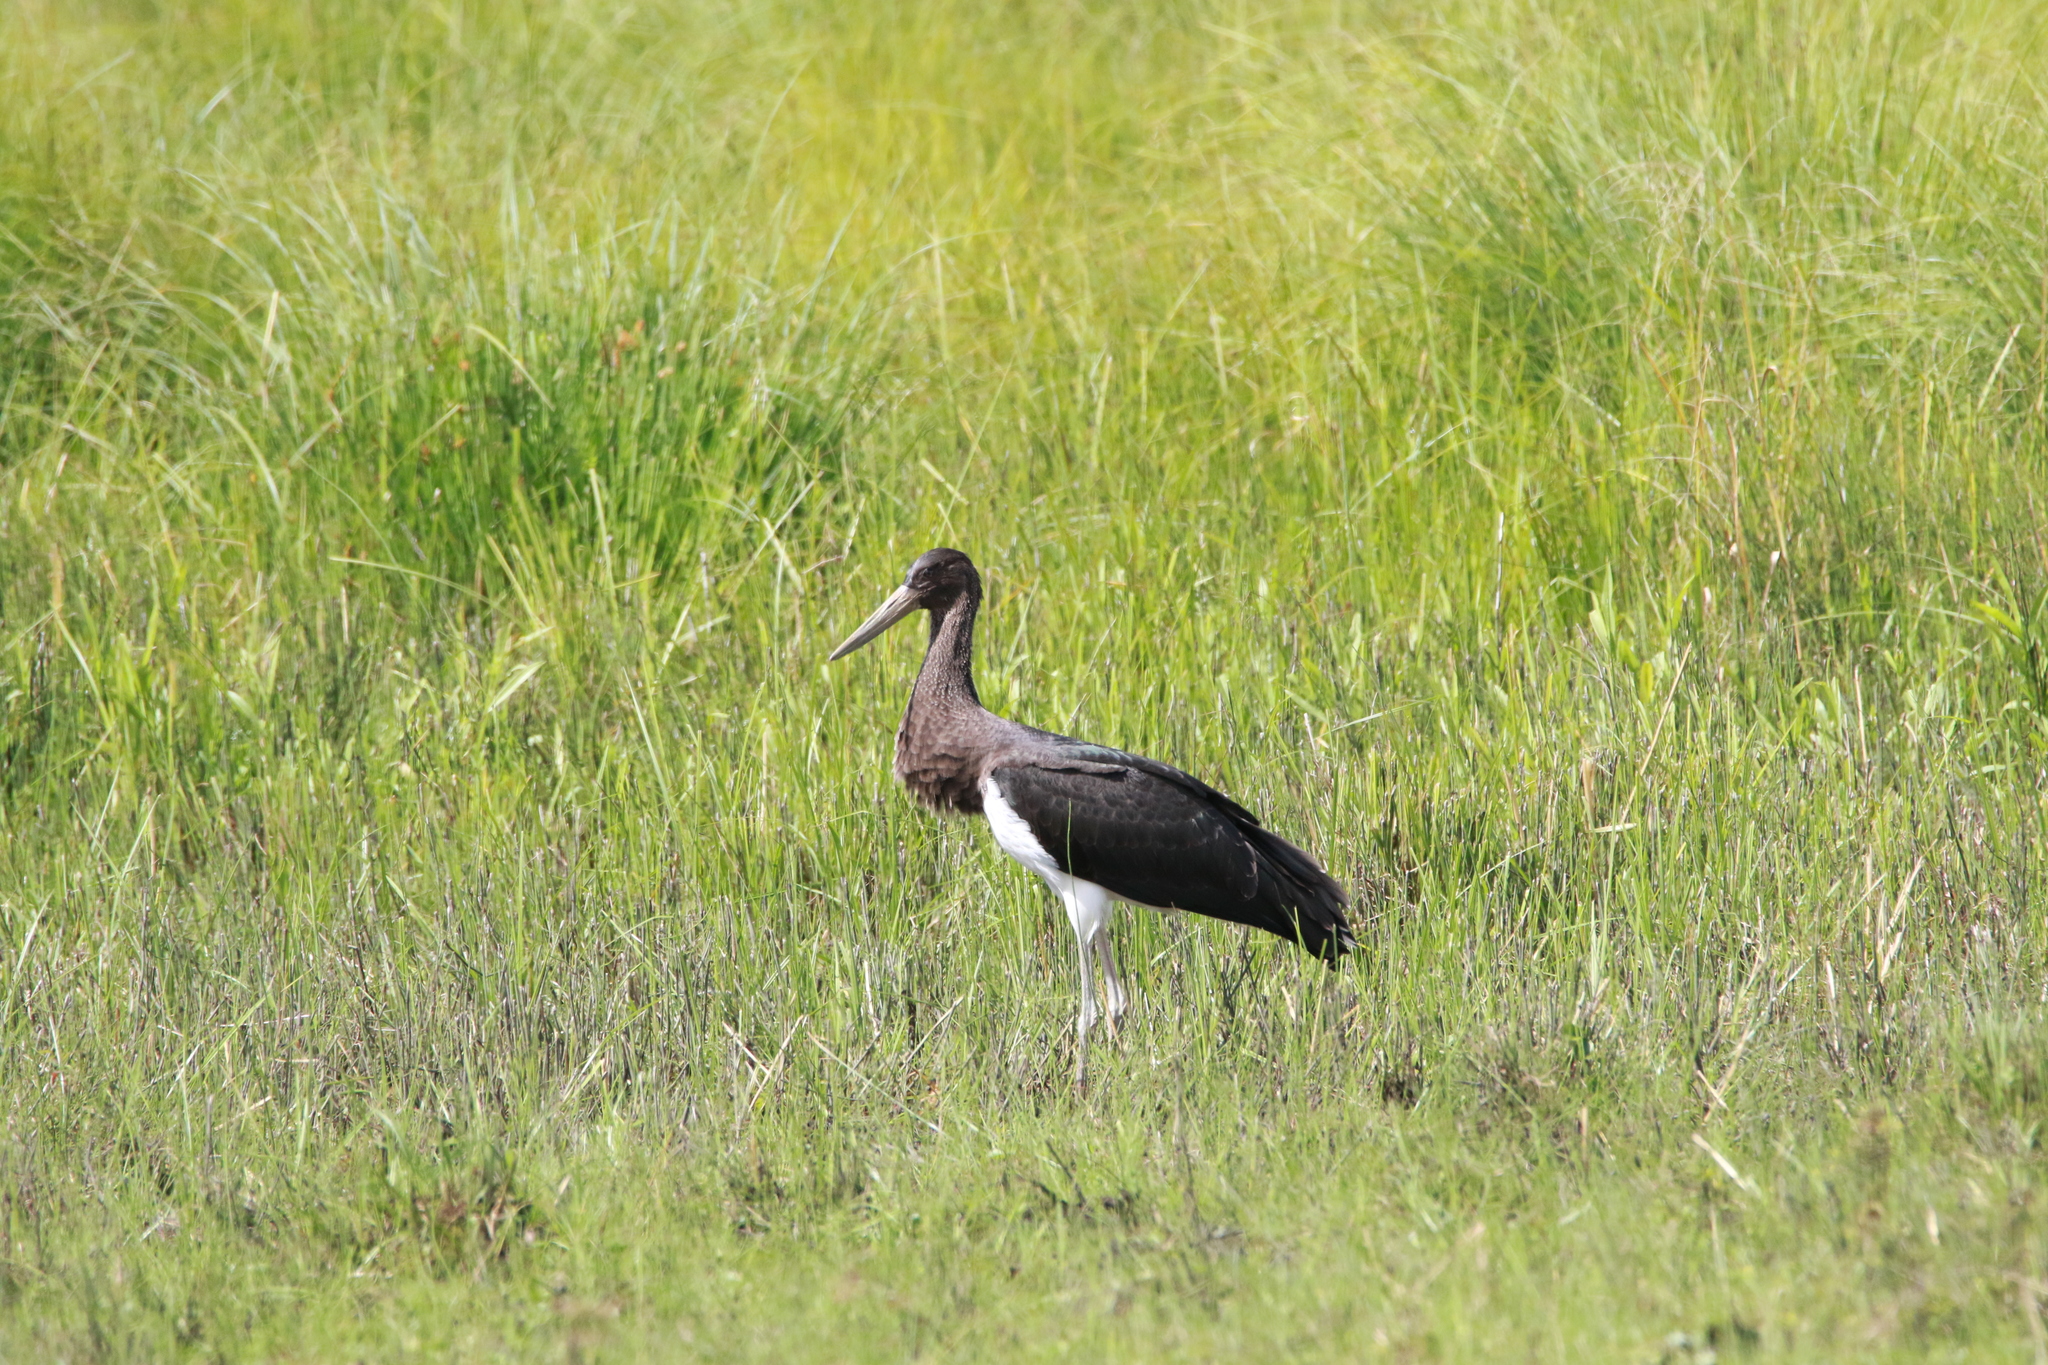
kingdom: Animalia
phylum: Chordata
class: Aves
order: Ciconiiformes
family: Ciconiidae
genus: Ciconia
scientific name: Ciconia nigra
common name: Black stork
